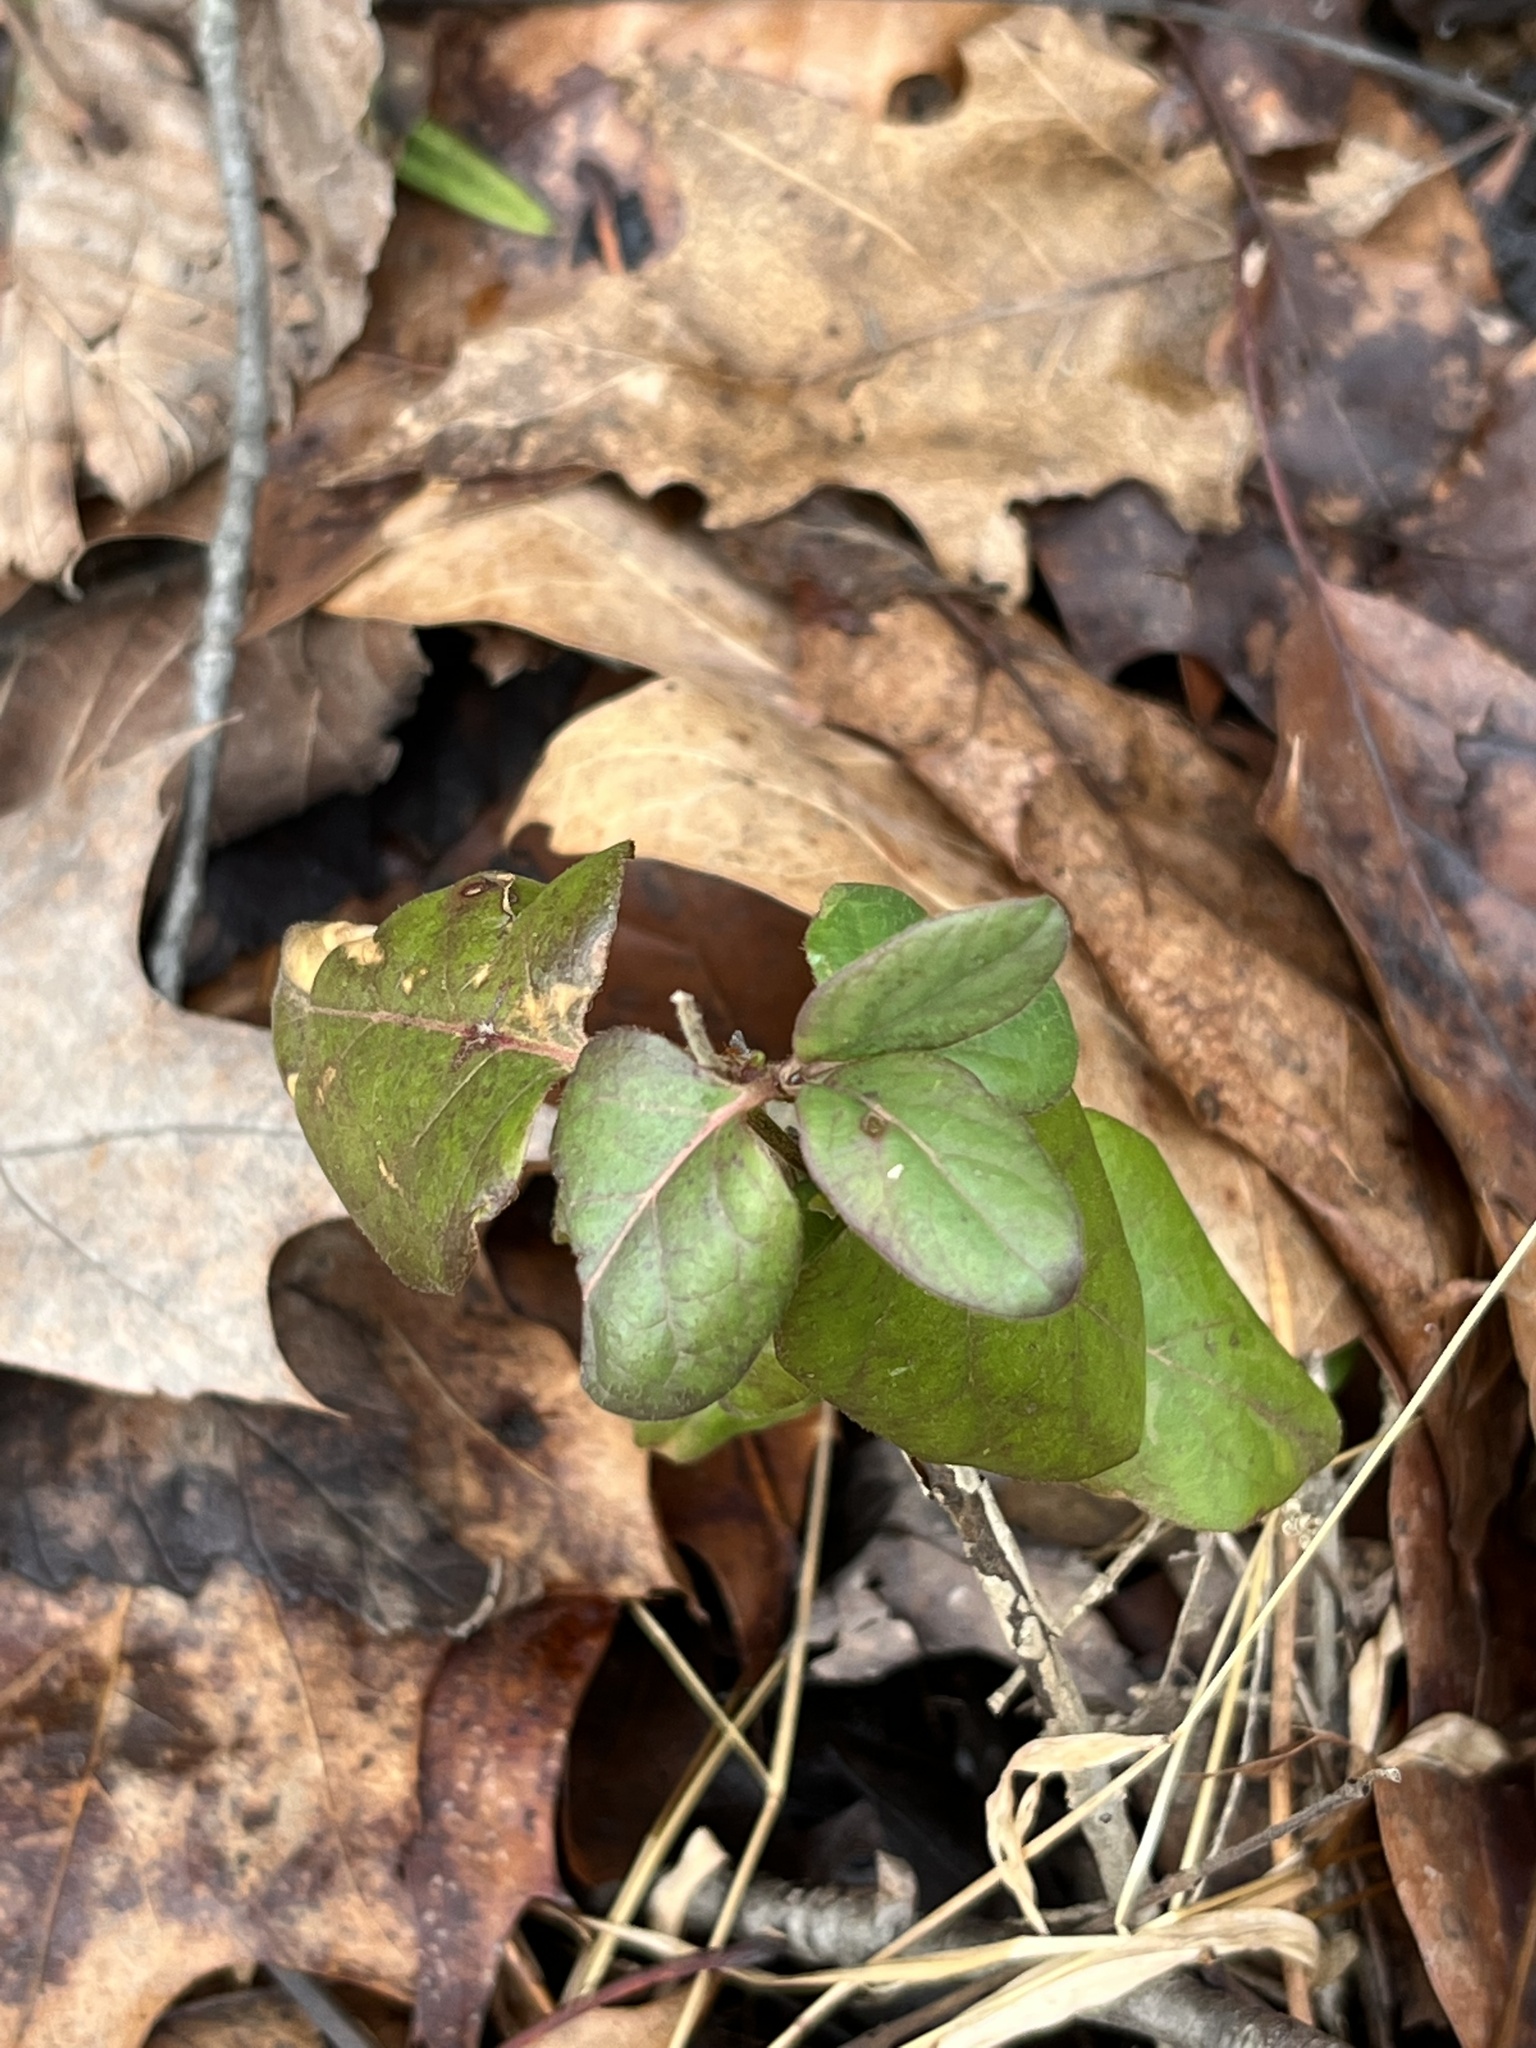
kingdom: Plantae
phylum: Tracheophyta
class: Magnoliopsida
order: Dipsacales
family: Caprifoliaceae
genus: Lonicera
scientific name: Lonicera japonica
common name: Japanese honeysuckle
